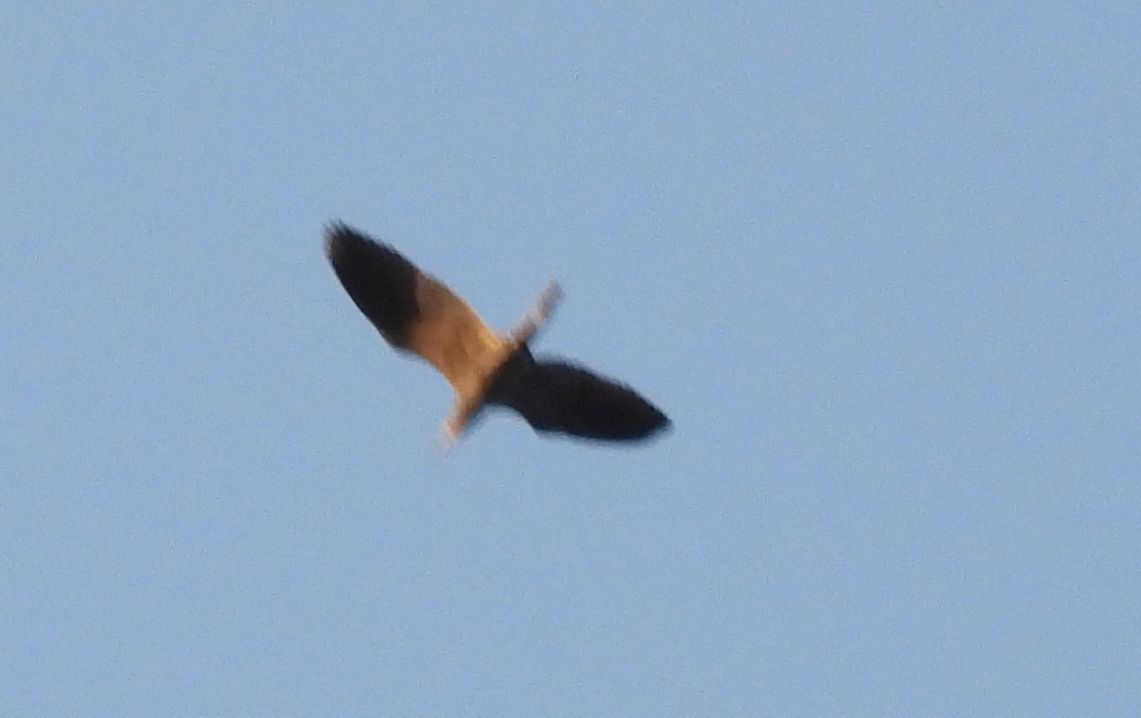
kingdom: Animalia
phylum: Chordata
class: Aves
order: Pelecaniformes
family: Ardeidae
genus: Egretta
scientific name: Egretta caerulea
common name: Little blue heron
